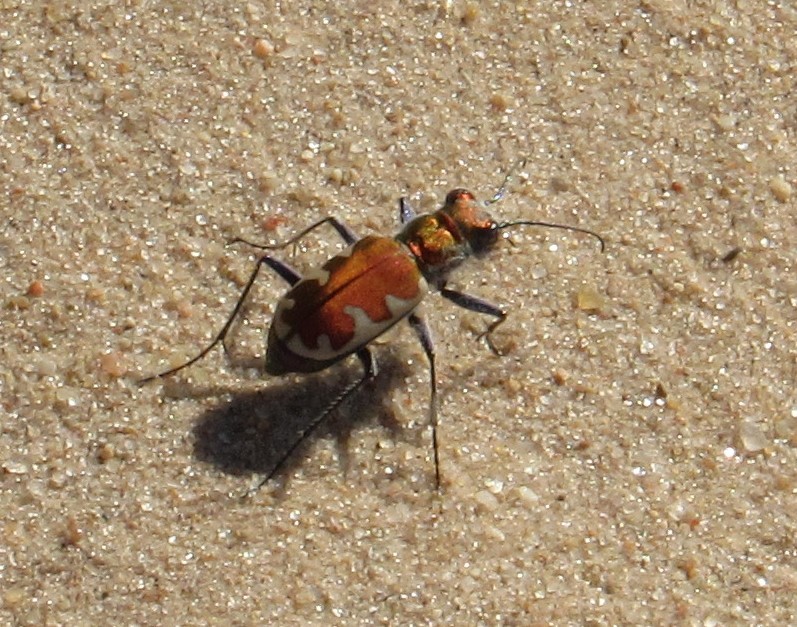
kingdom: Animalia
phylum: Arthropoda
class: Insecta
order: Coleoptera
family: Carabidae
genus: Cicindela
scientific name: Cicindela formosa
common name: Big sand tiger beetle
